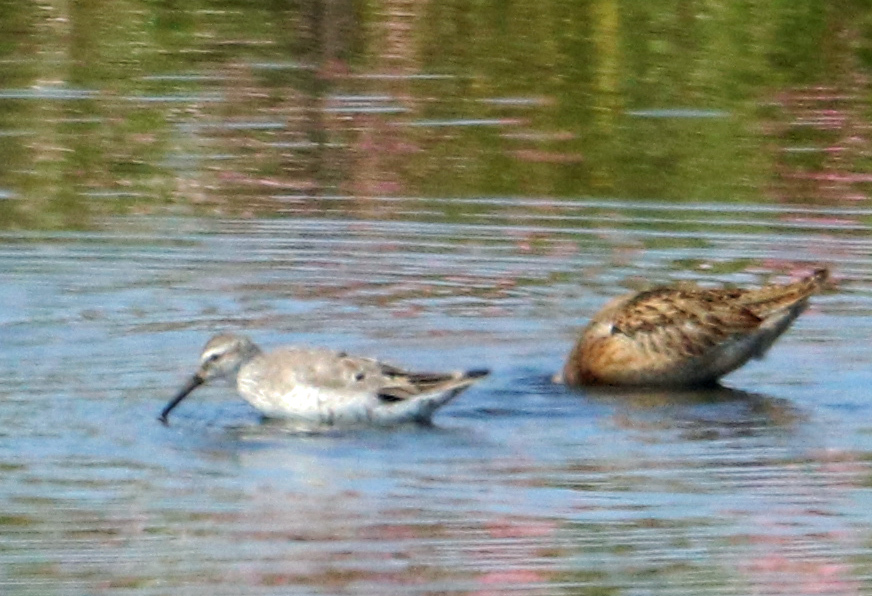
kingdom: Animalia
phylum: Chordata
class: Aves
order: Charadriiformes
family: Scolopacidae
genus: Calidris
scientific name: Calidris himantopus
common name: Stilt sandpiper
